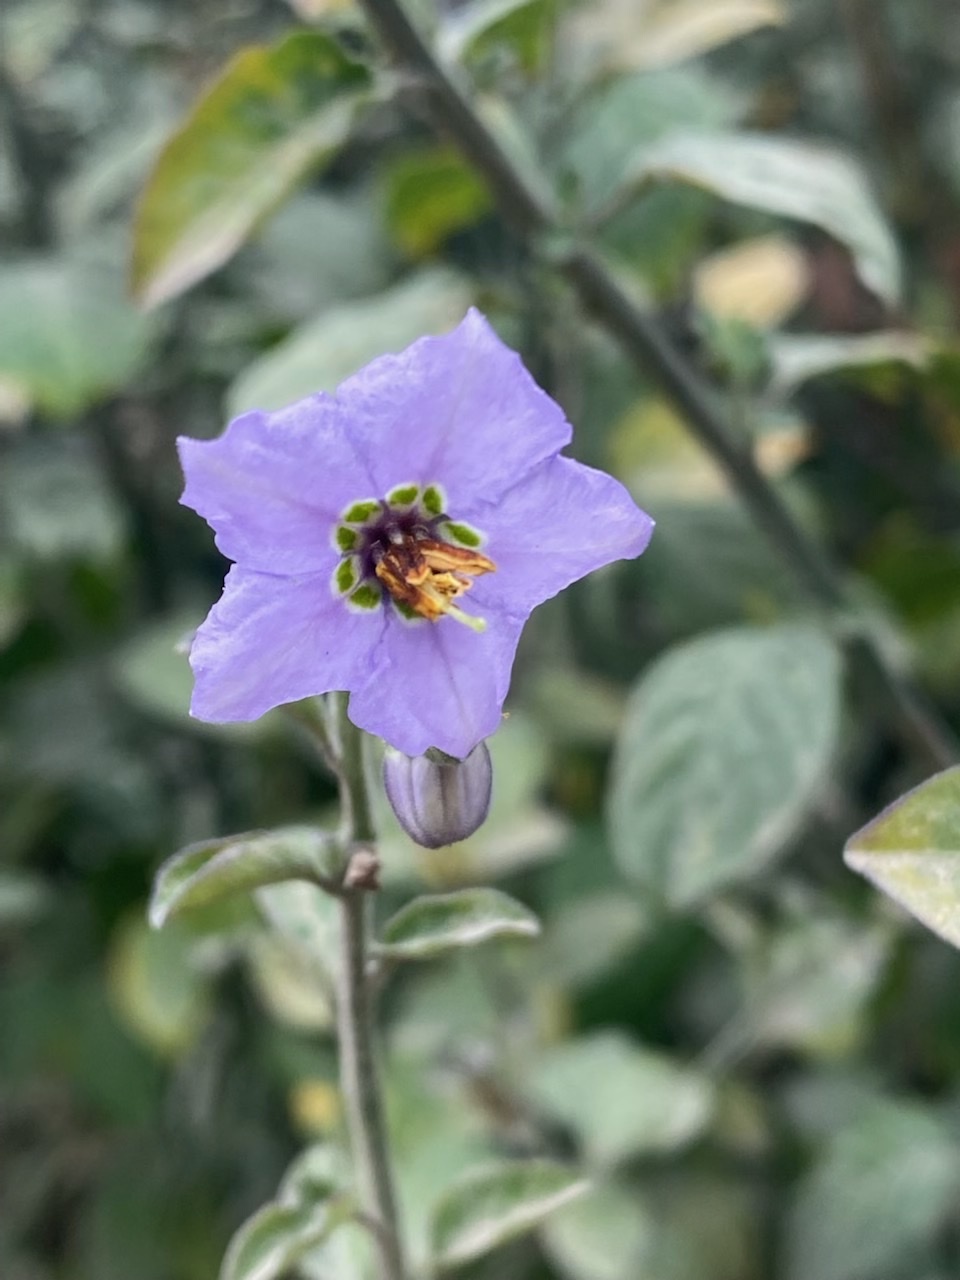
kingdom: Plantae
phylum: Tracheophyta
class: Magnoliopsida
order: Solanales
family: Solanaceae
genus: Solanum
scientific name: Solanum umbelliferum
